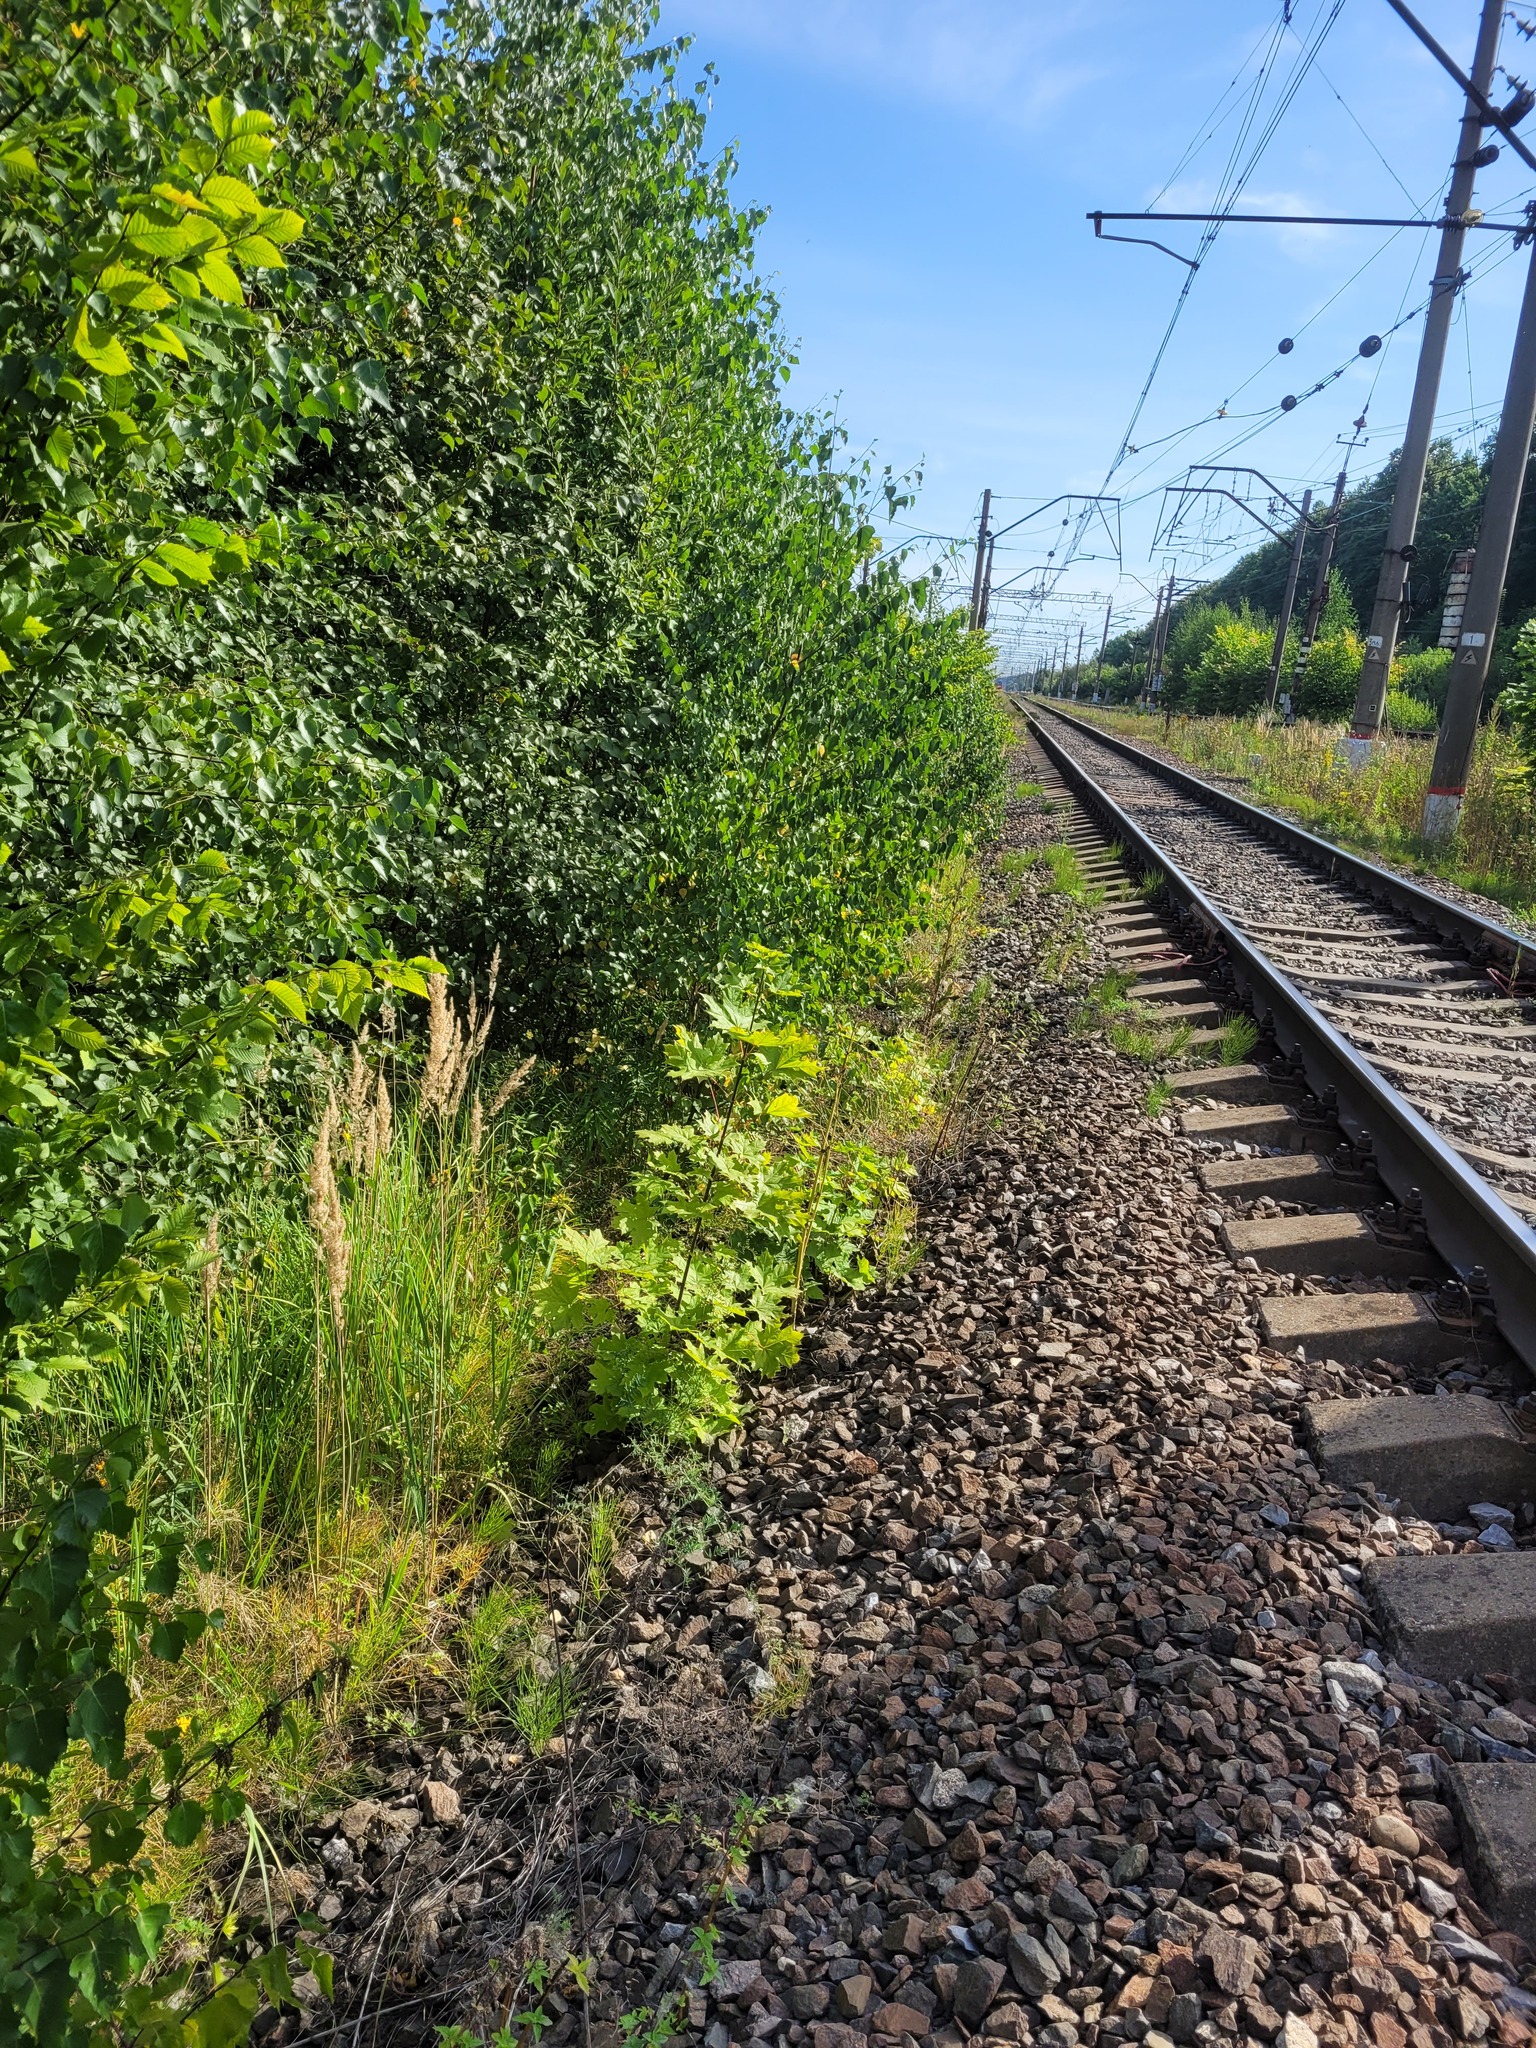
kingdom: Plantae
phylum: Tracheophyta
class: Magnoliopsida
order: Sapindales
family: Sapindaceae
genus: Acer
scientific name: Acer platanoides
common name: Norway maple
